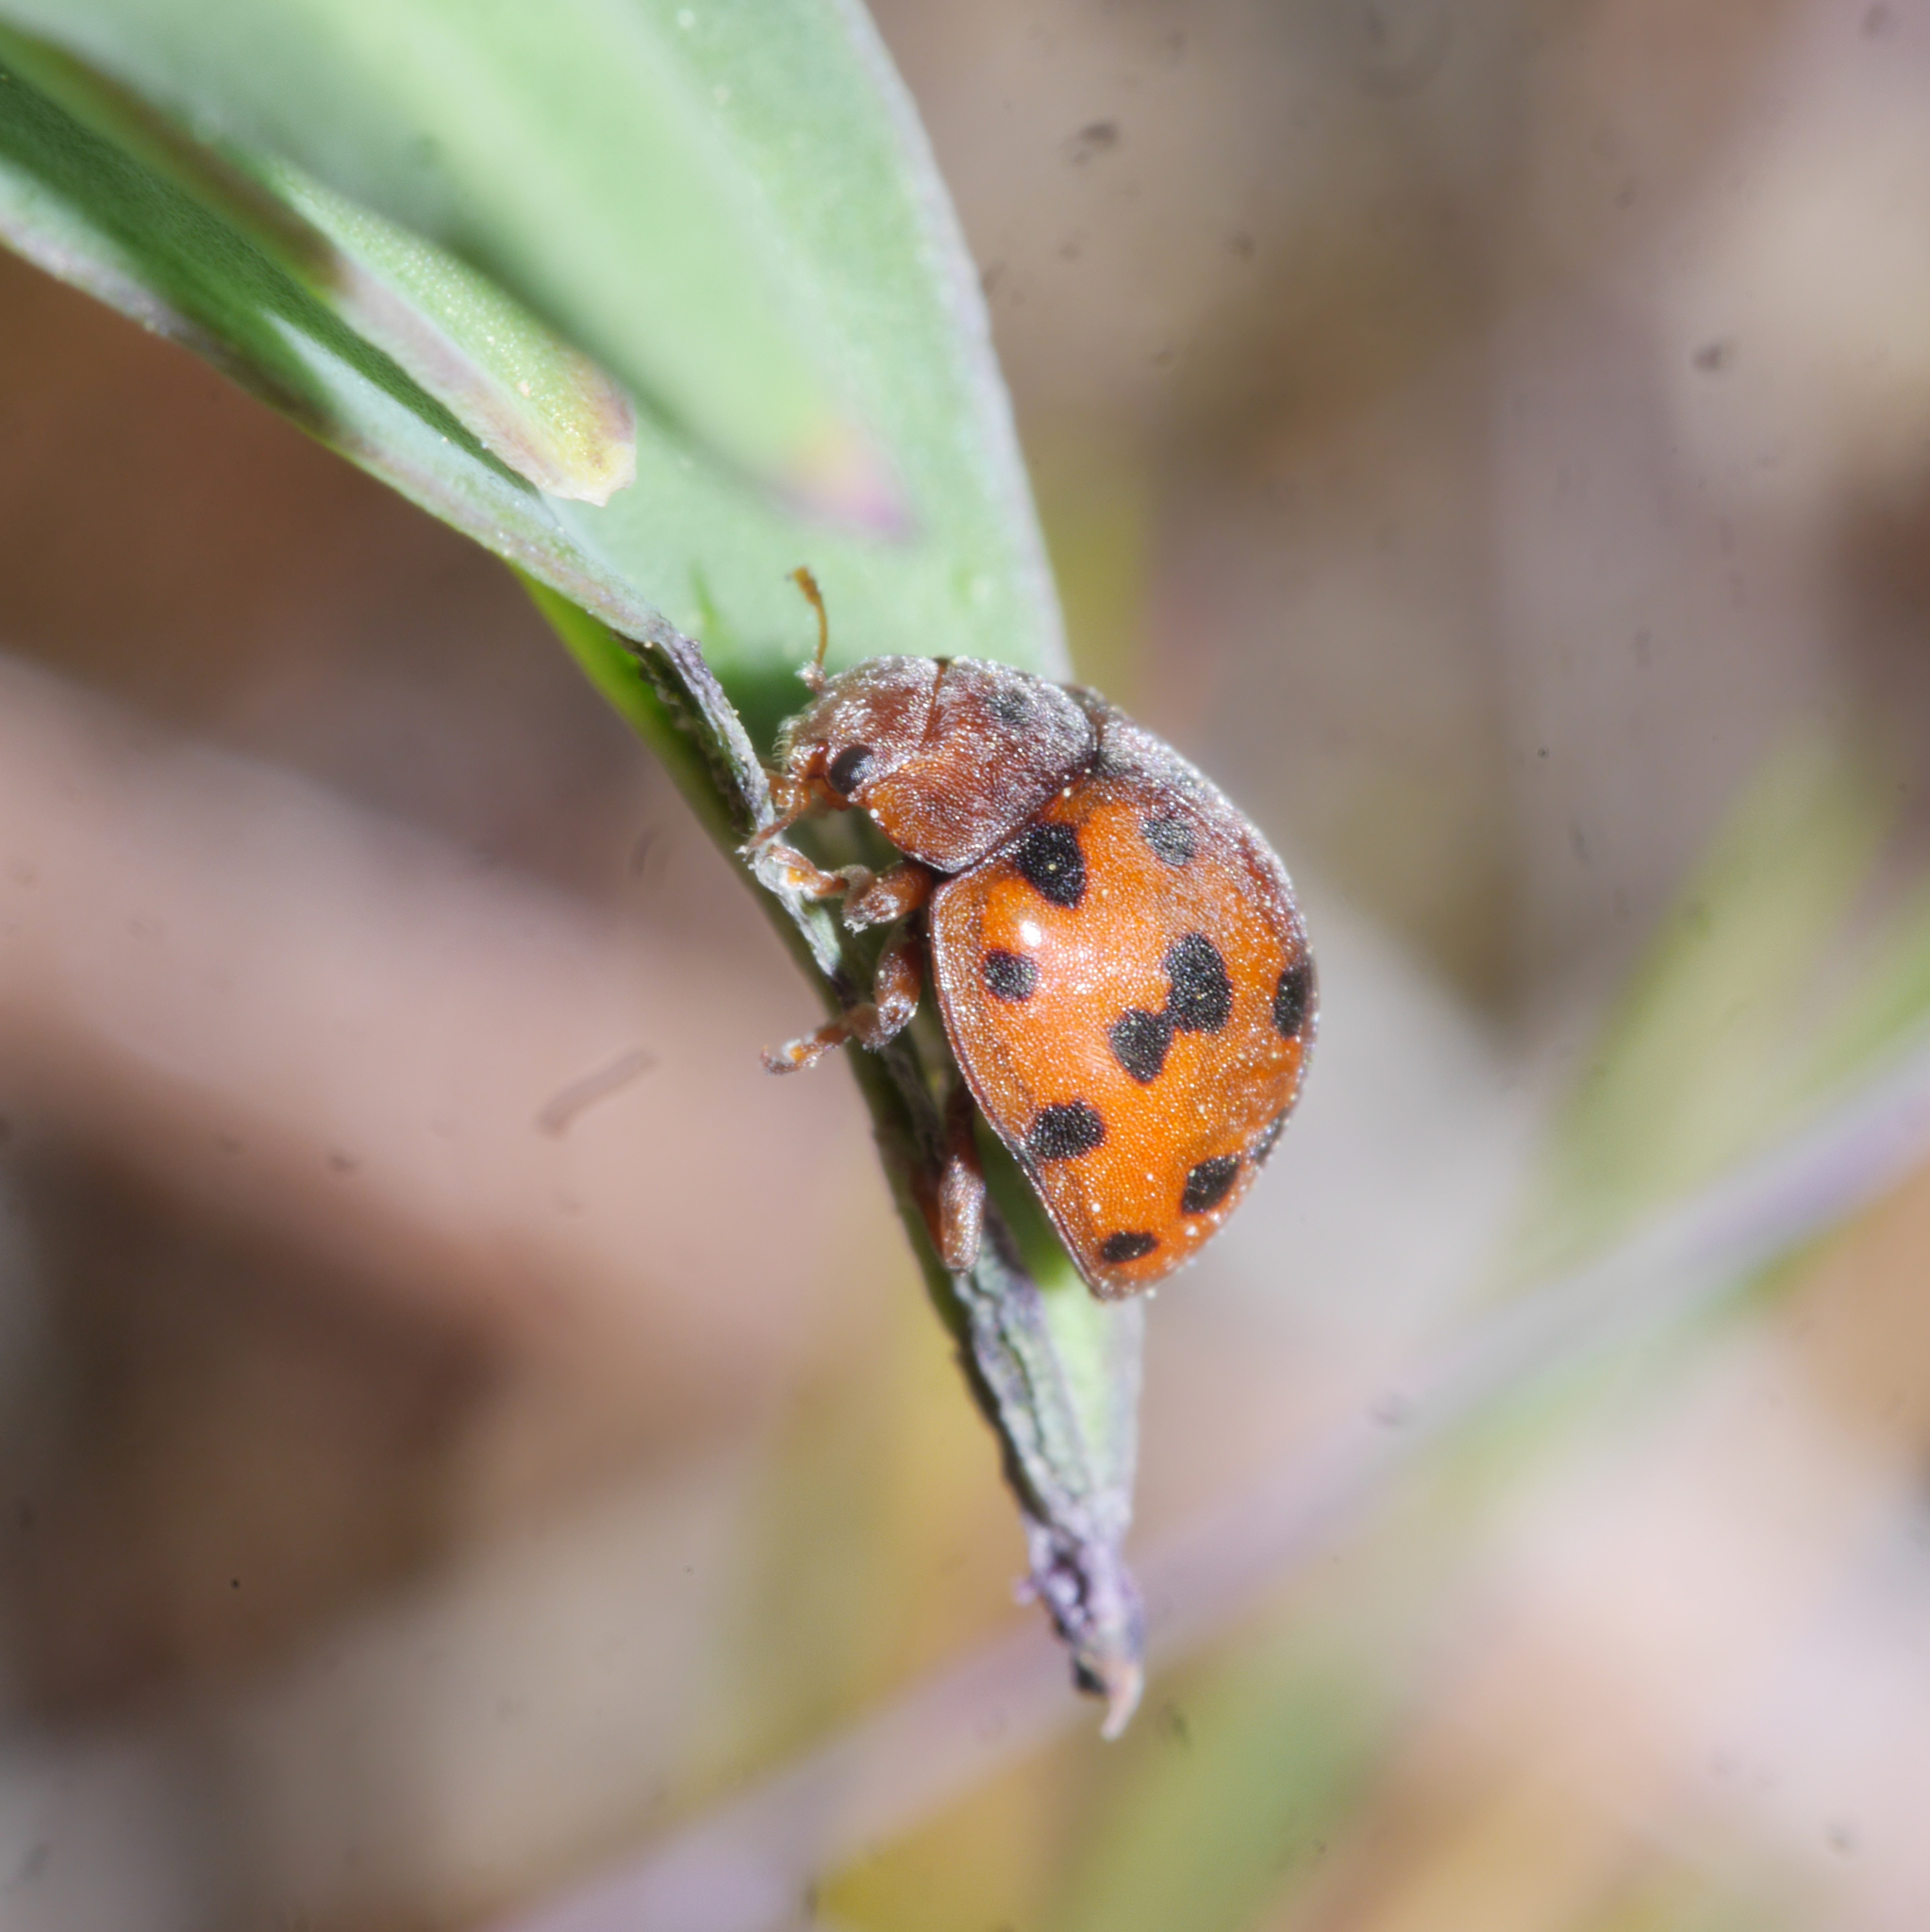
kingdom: Animalia
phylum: Arthropoda
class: Insecta
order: Coleoptera
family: Coccinellidae
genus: Subcoccinella
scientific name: Subcoccinella vigintiquatuorpunctata
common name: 24-spot ladybird
